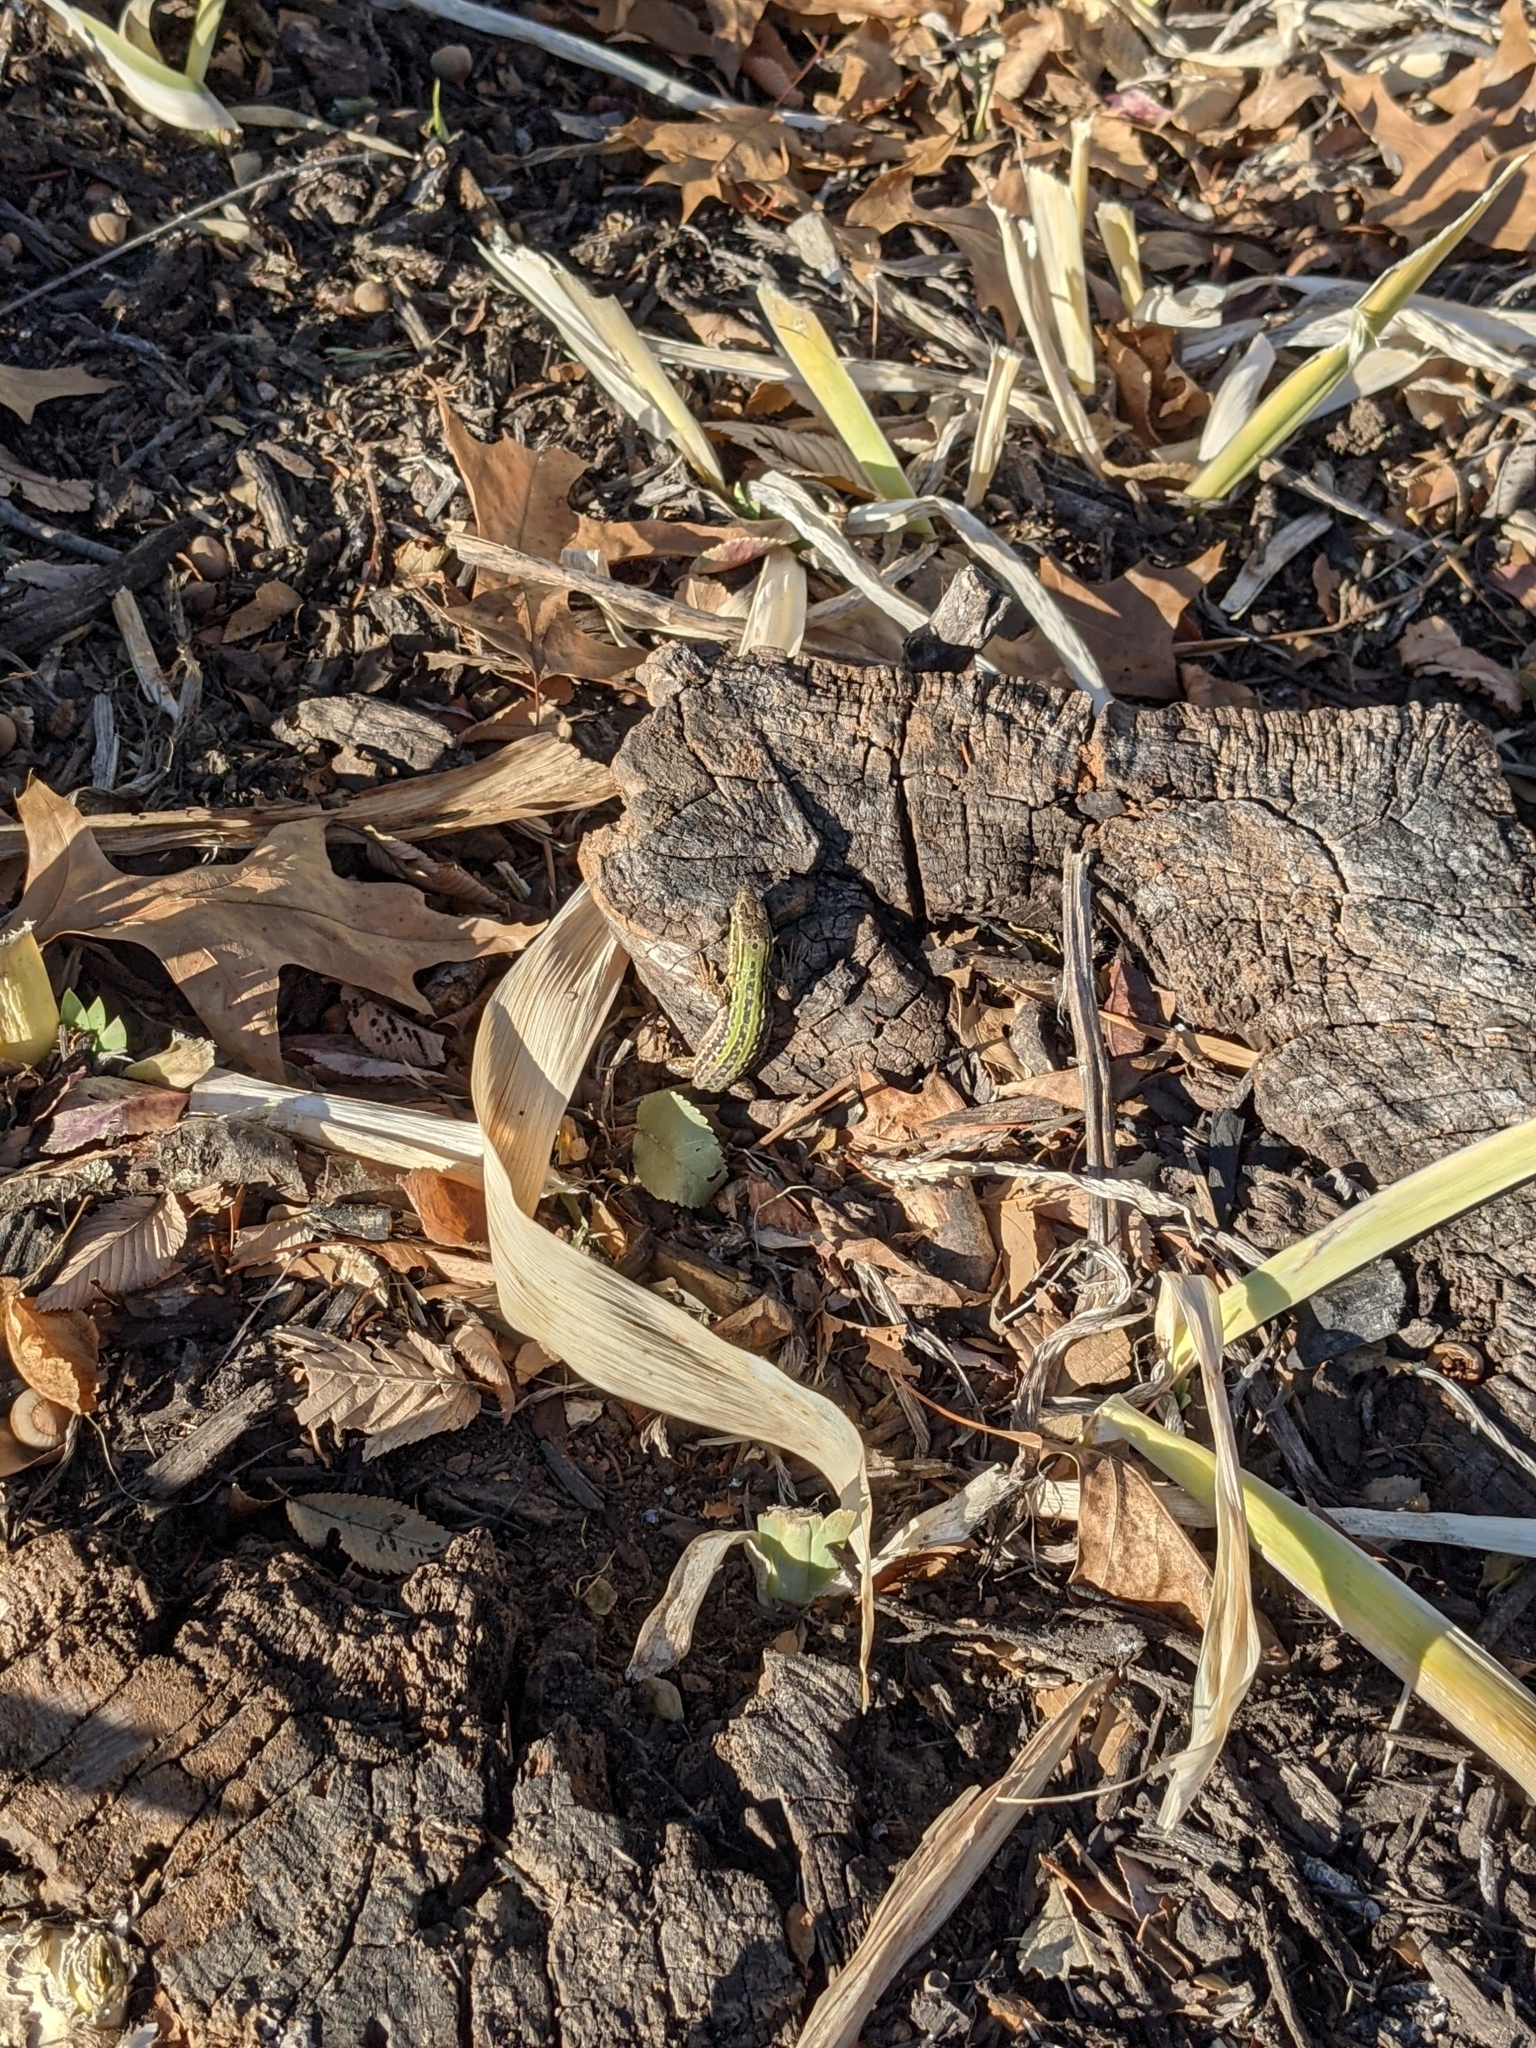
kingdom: Animalia
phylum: Chordata
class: Squamata
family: Lacertidae
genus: Podarcis
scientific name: Podarcis siculus
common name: Italian wall lizard
